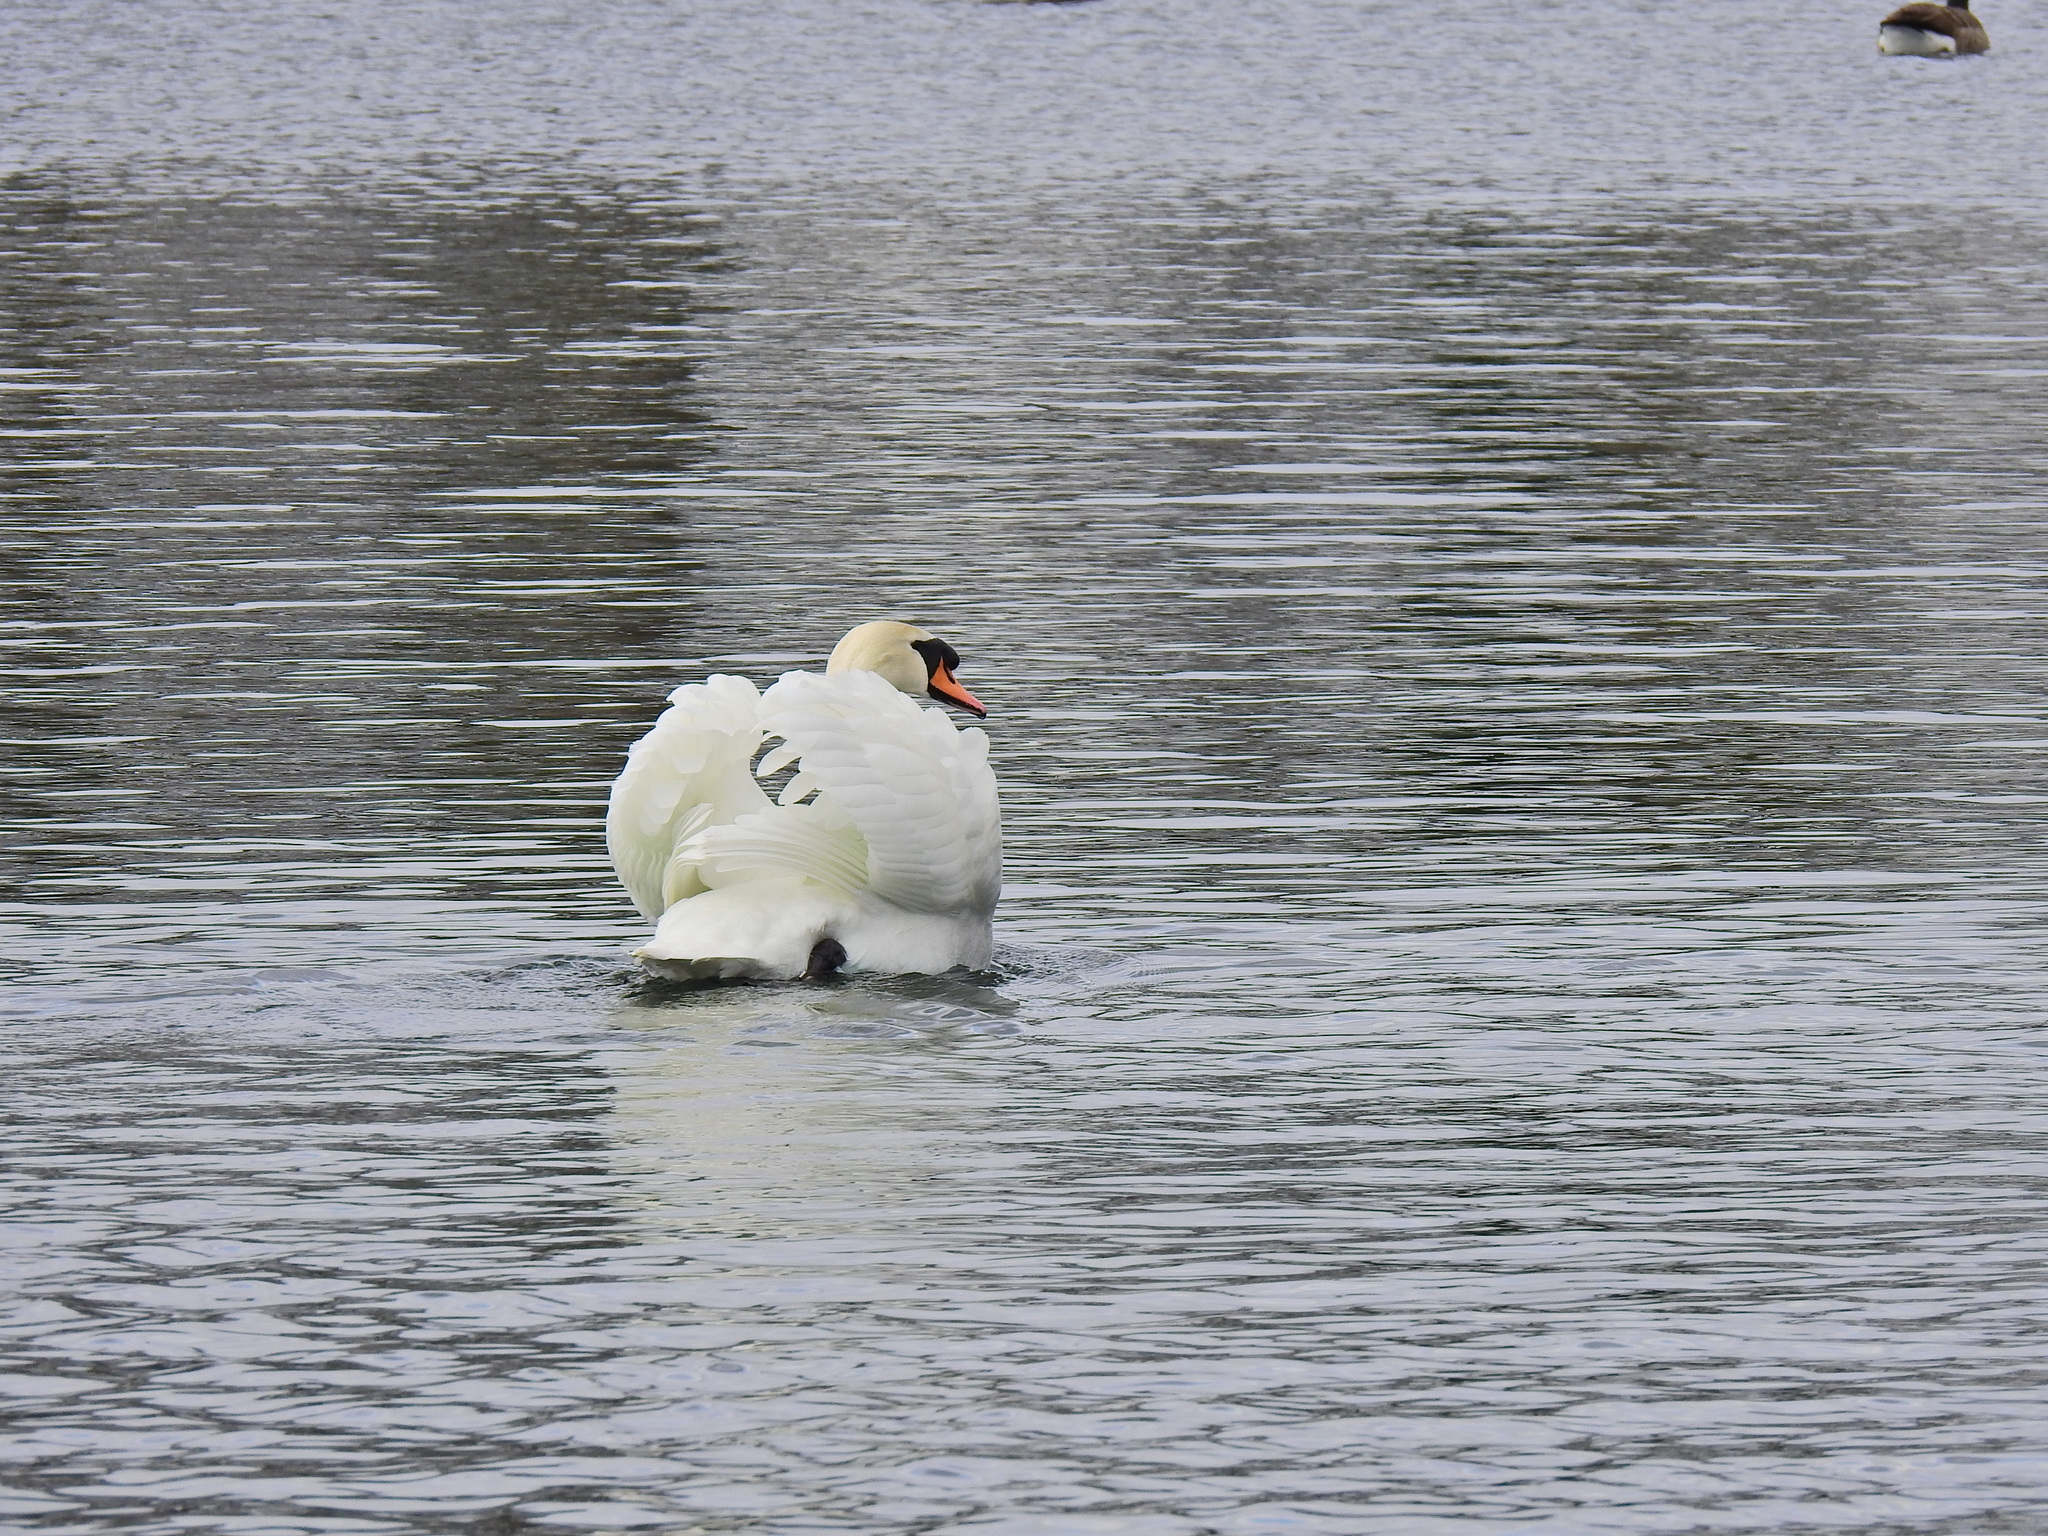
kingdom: Animalia
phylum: Chordata
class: Aves
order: Anseriformes
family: Anatidae
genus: Cygnus
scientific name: Cygnus olor
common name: Mute swan
